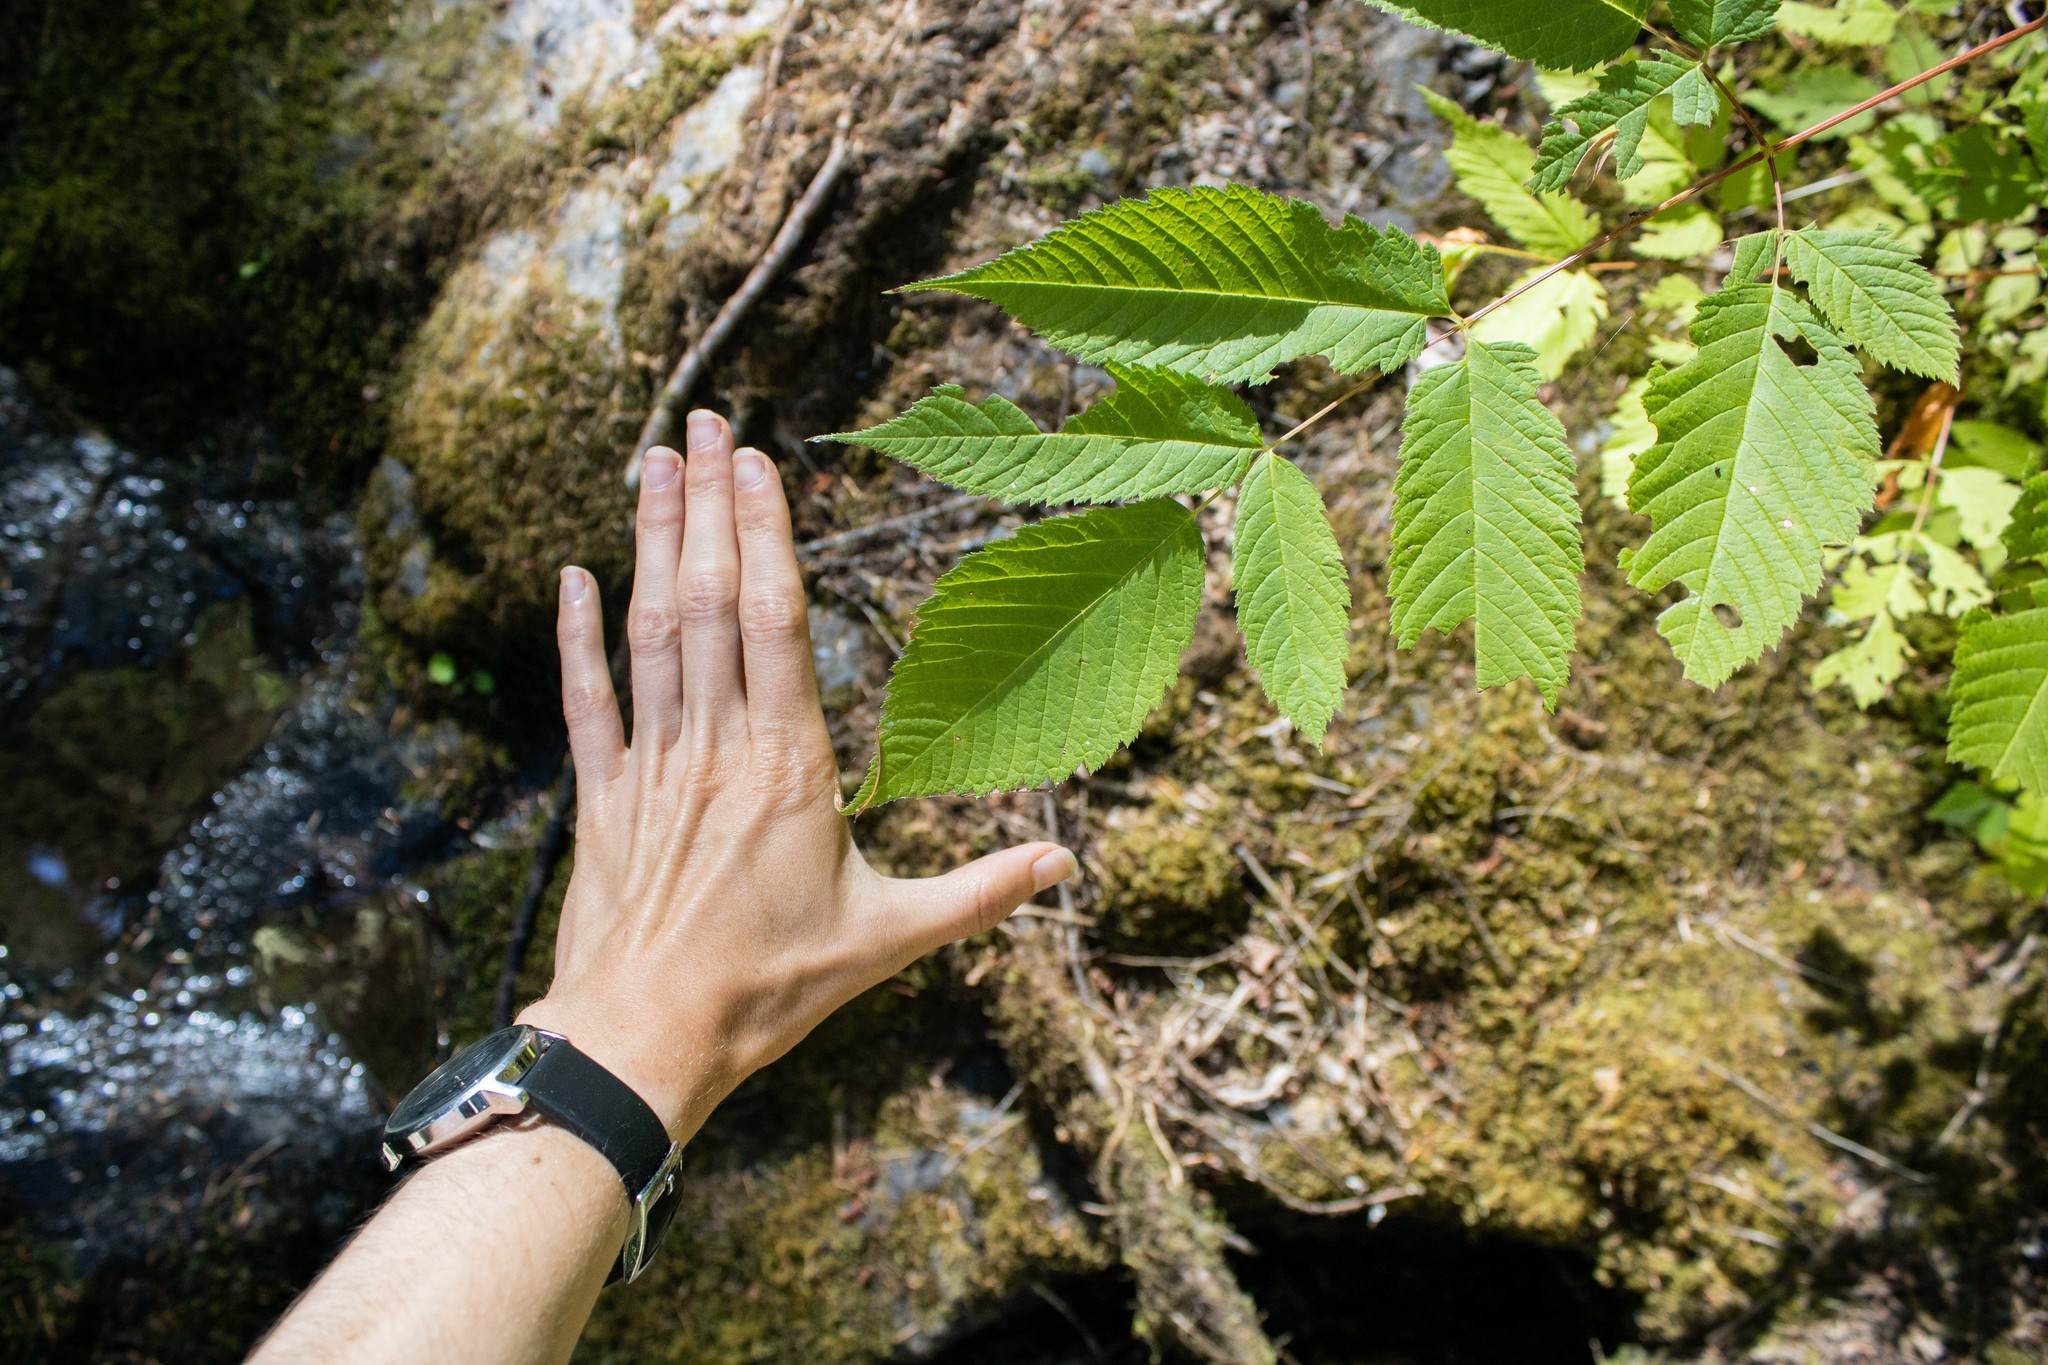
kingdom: Plantae
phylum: Tracheophyta
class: Magnoliopsida
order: Rosales
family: Rosaceae
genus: Aruncus
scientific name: Aruncus dioicus
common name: Buck's-beard
